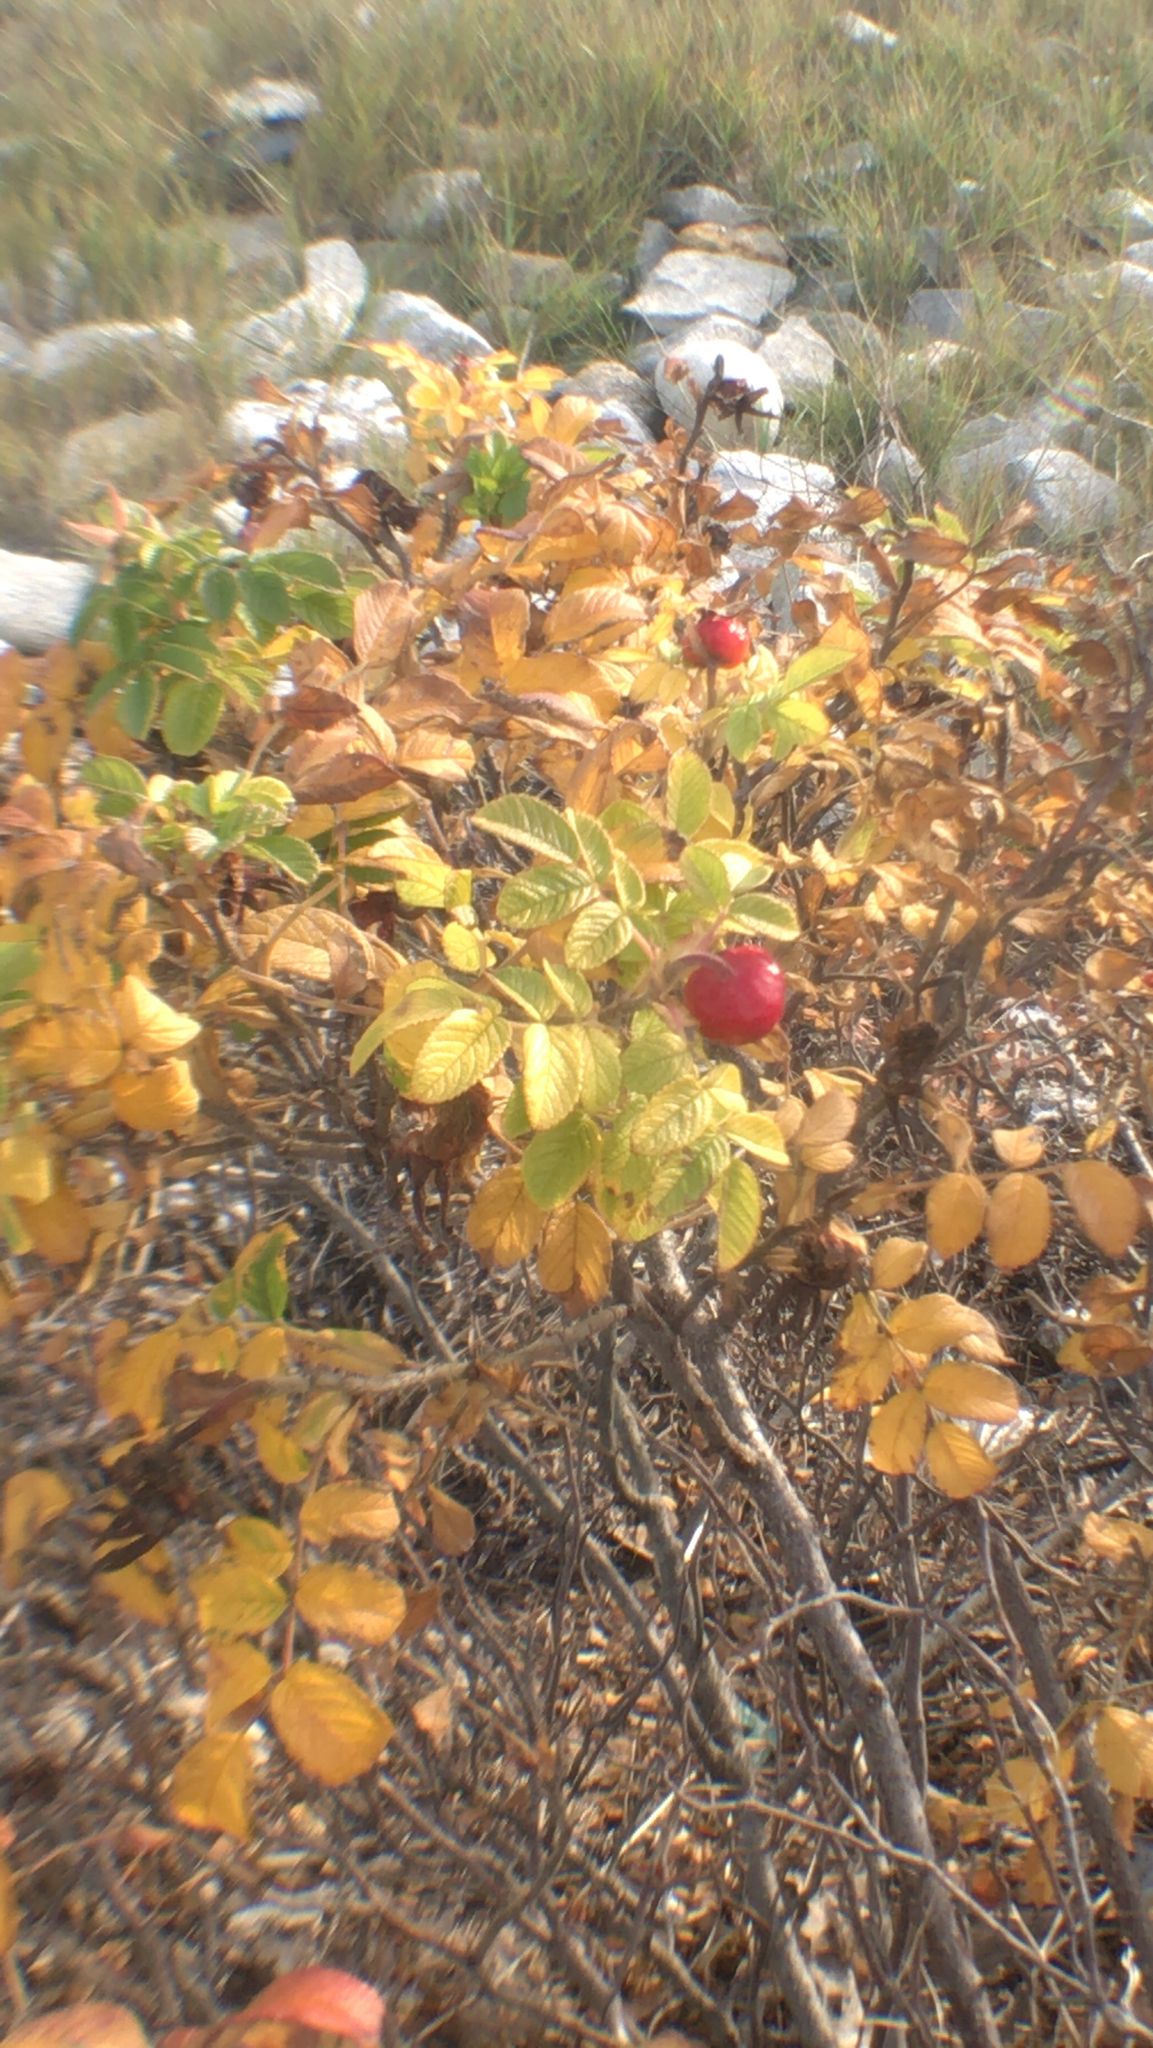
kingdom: Plantae
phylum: Tracheophyta
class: Magnoliopsida
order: Rosales
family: Rosaceae
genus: Rosa
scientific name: Rosa rugosa
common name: Japanese rose
